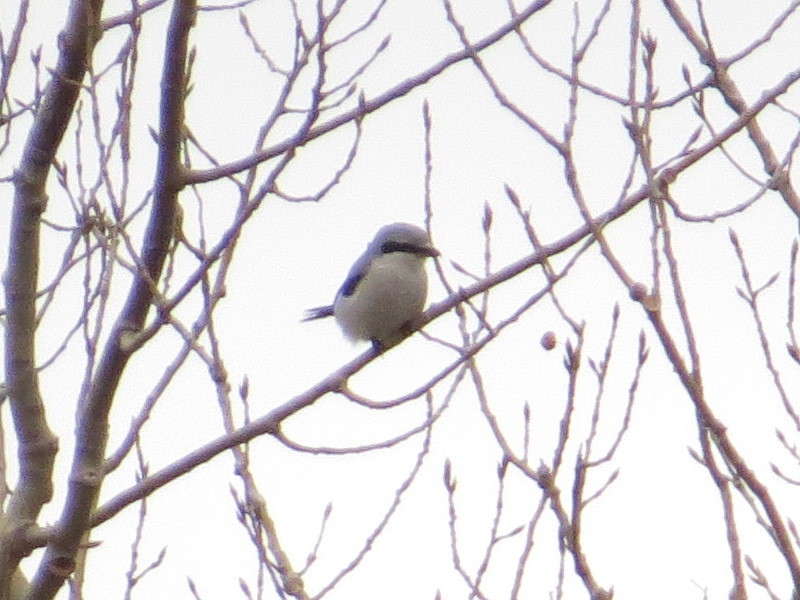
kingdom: Animalia
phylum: Chordata
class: Aves
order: Passeriformes
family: Laniidae
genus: Lanius
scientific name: Lanius borealis
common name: Northern shrike
